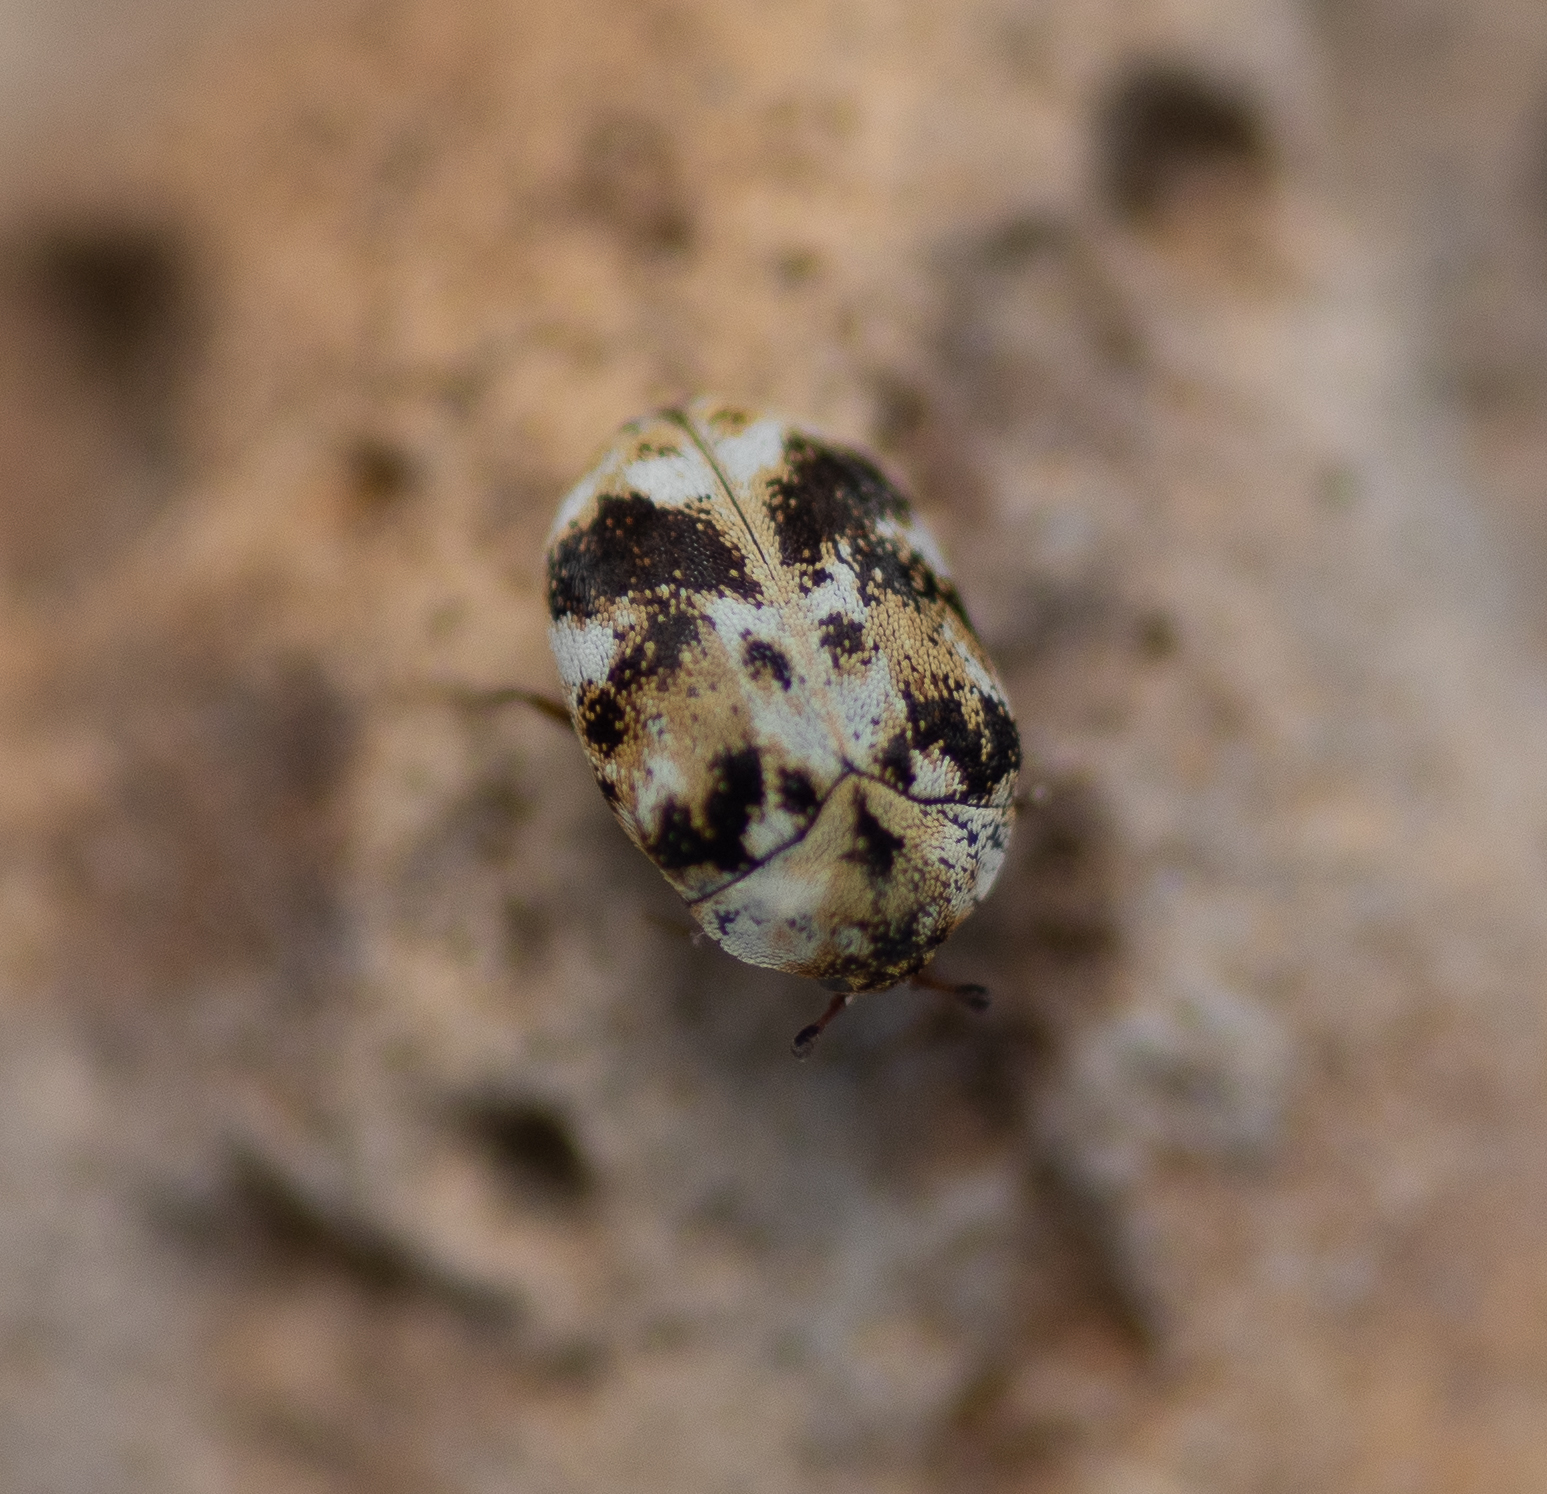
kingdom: Animalia
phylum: Arthropoda
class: Insecta
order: Coleoptera
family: Dermestidae
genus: Anthrenus
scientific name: Anthrenus picturatus
